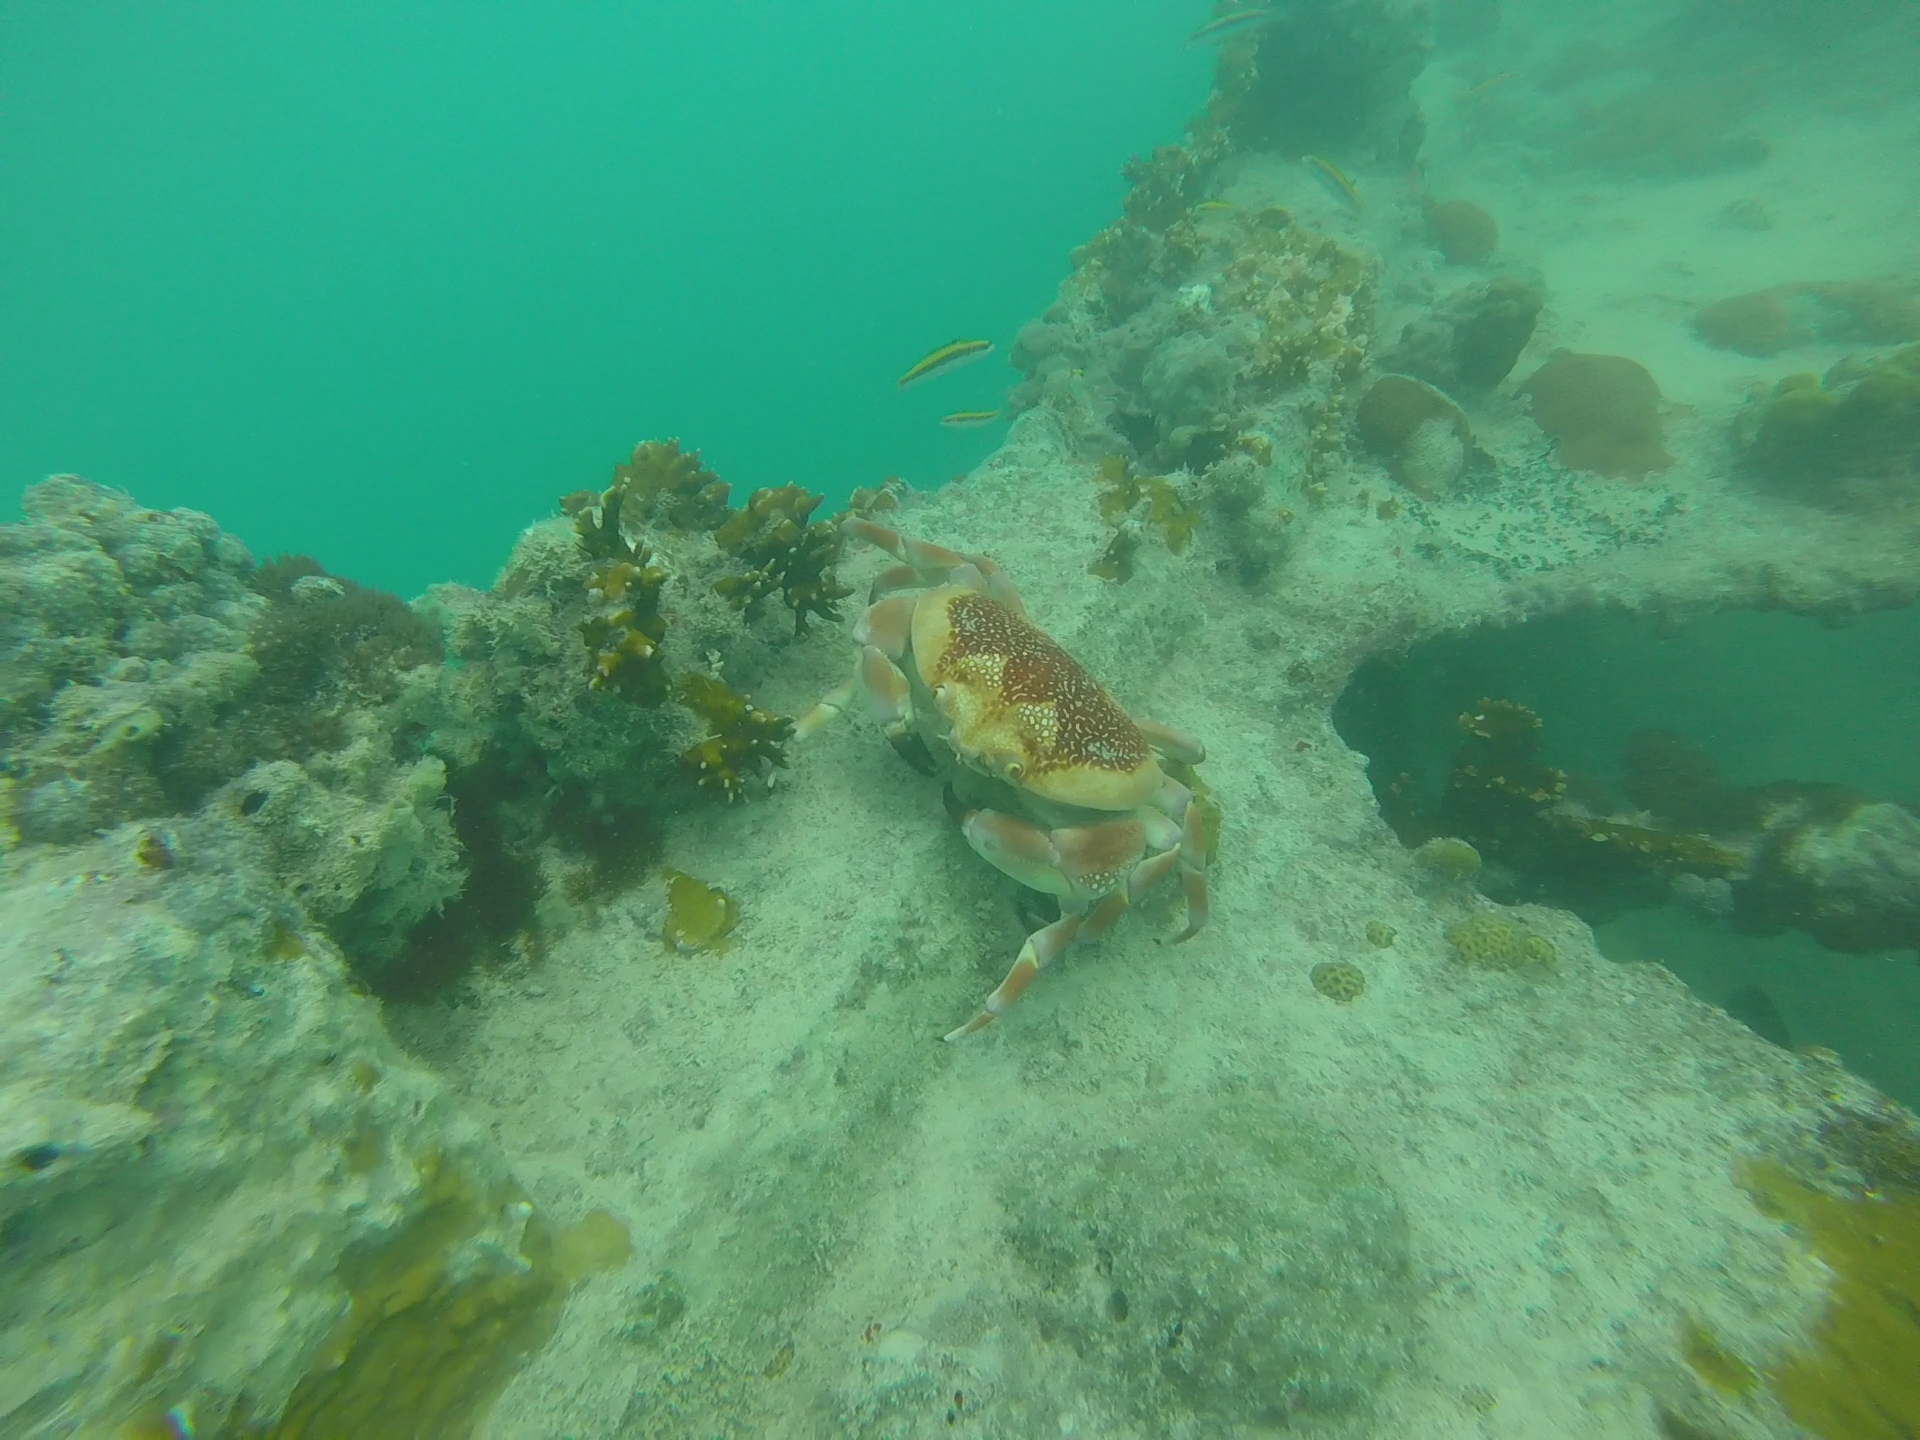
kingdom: Animalia
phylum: Arthropoda
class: Malacostraca
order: Decapoda
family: Carpiliidae
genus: Carpilius
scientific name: Carpilius corallinus
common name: Batwing coral crab
